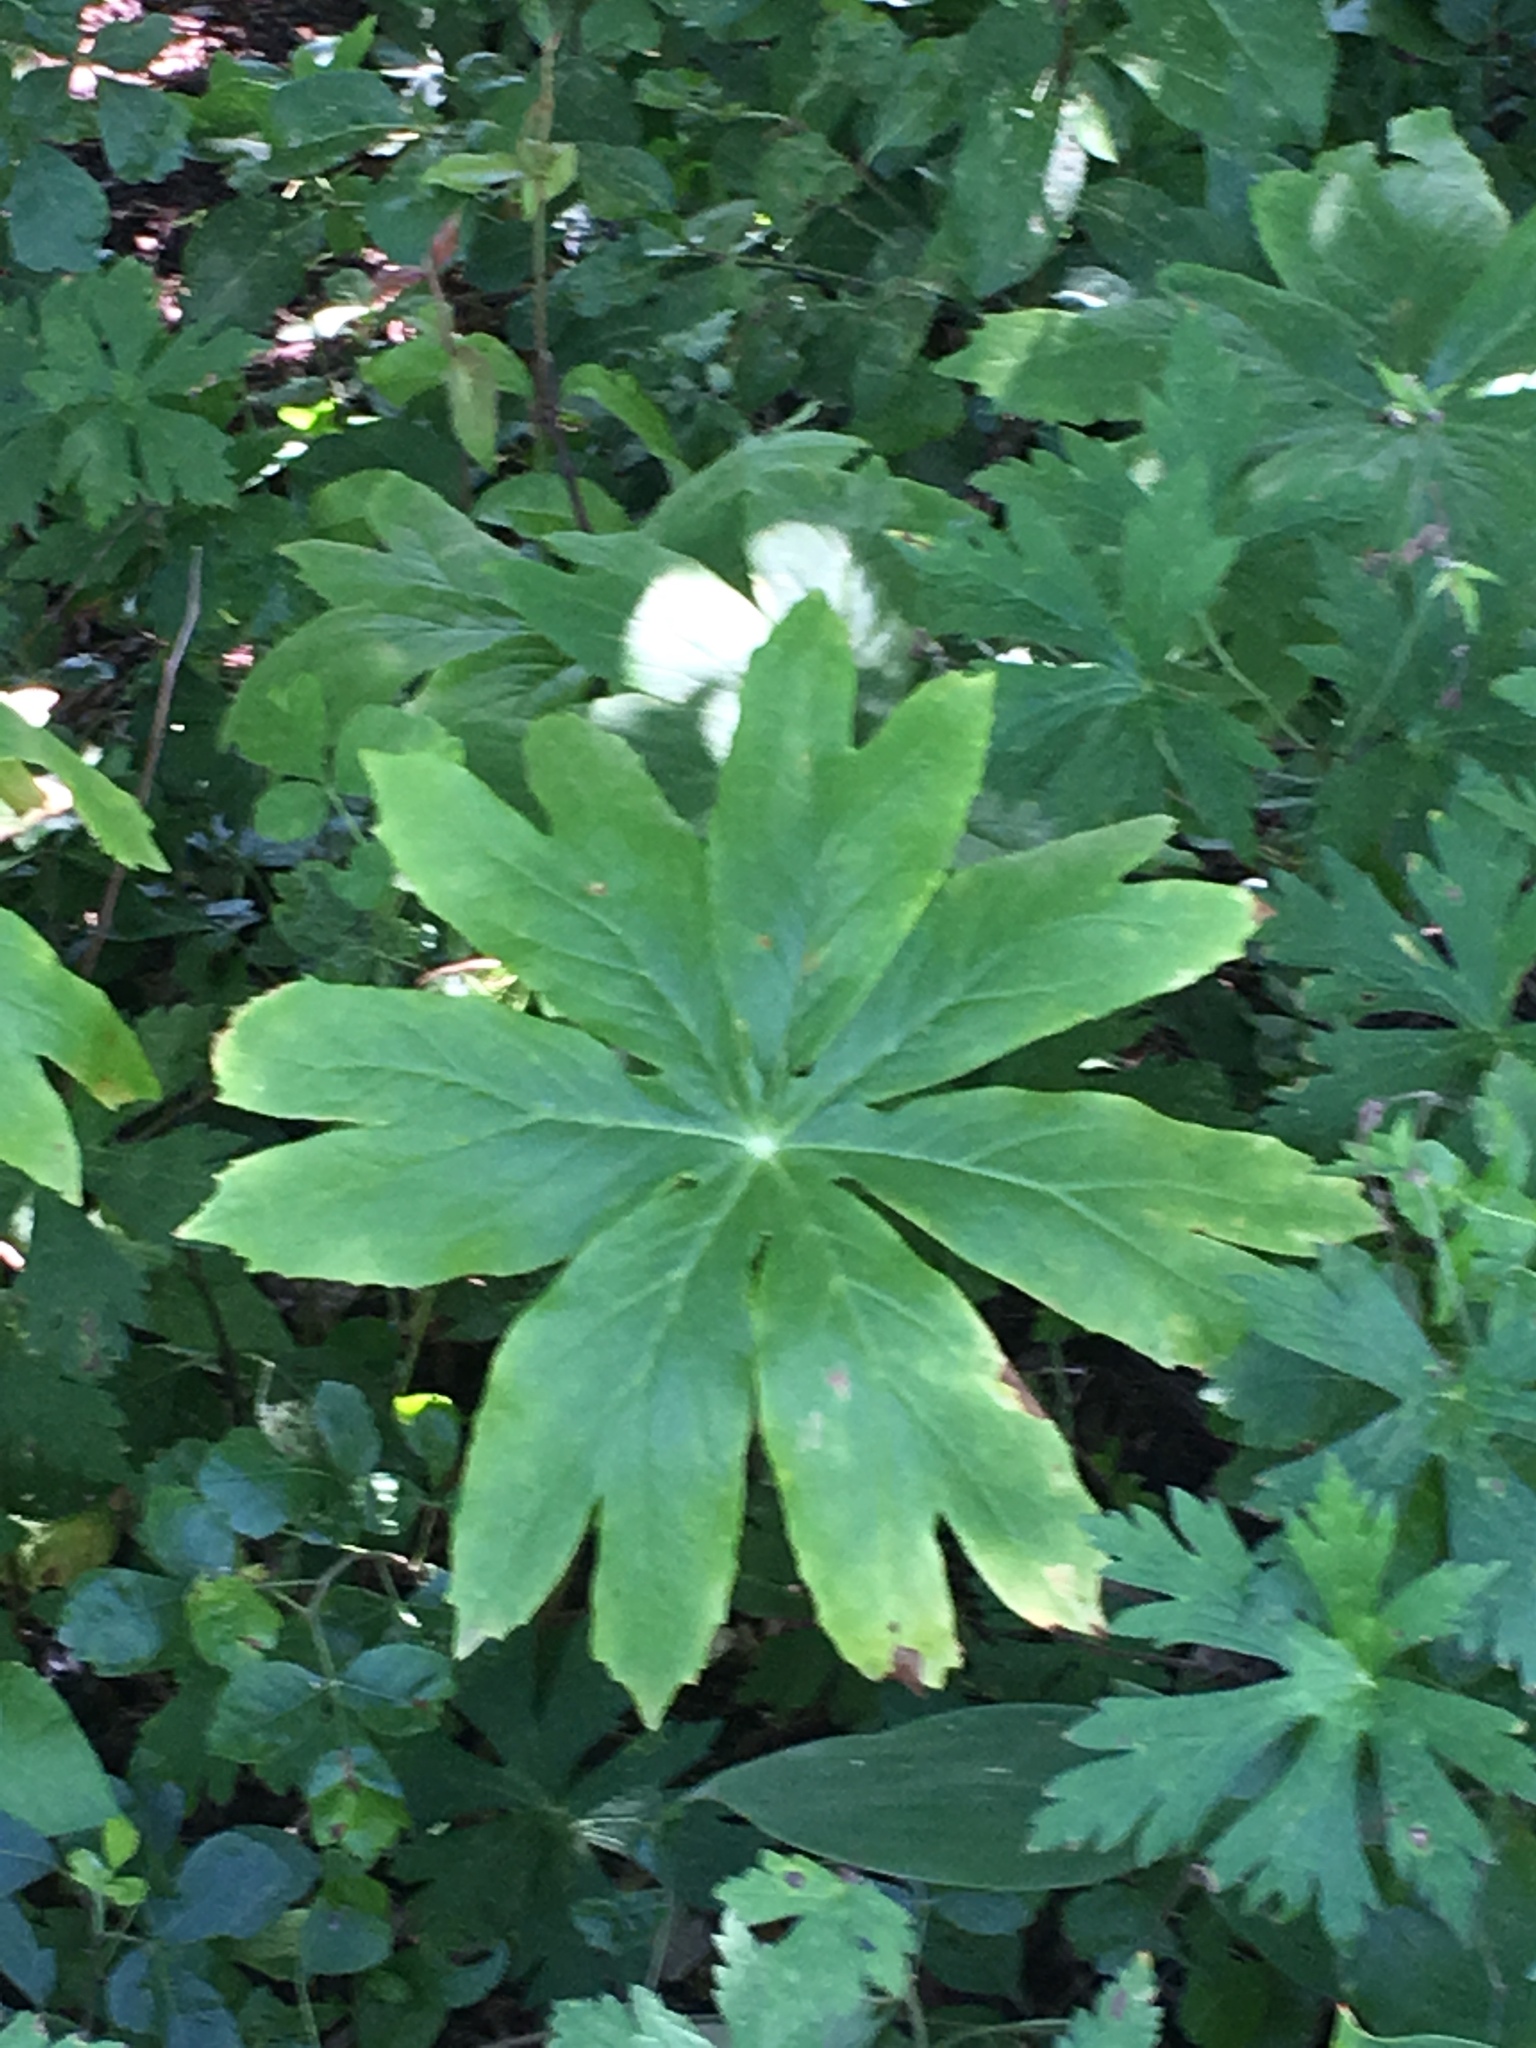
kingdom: Plantae
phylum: Tracheophyta
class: Magnoliopsida
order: Ranunculales
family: Berberidaceae
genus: Podophyllum
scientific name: Podophyllum peltatum
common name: Wild mandrake
